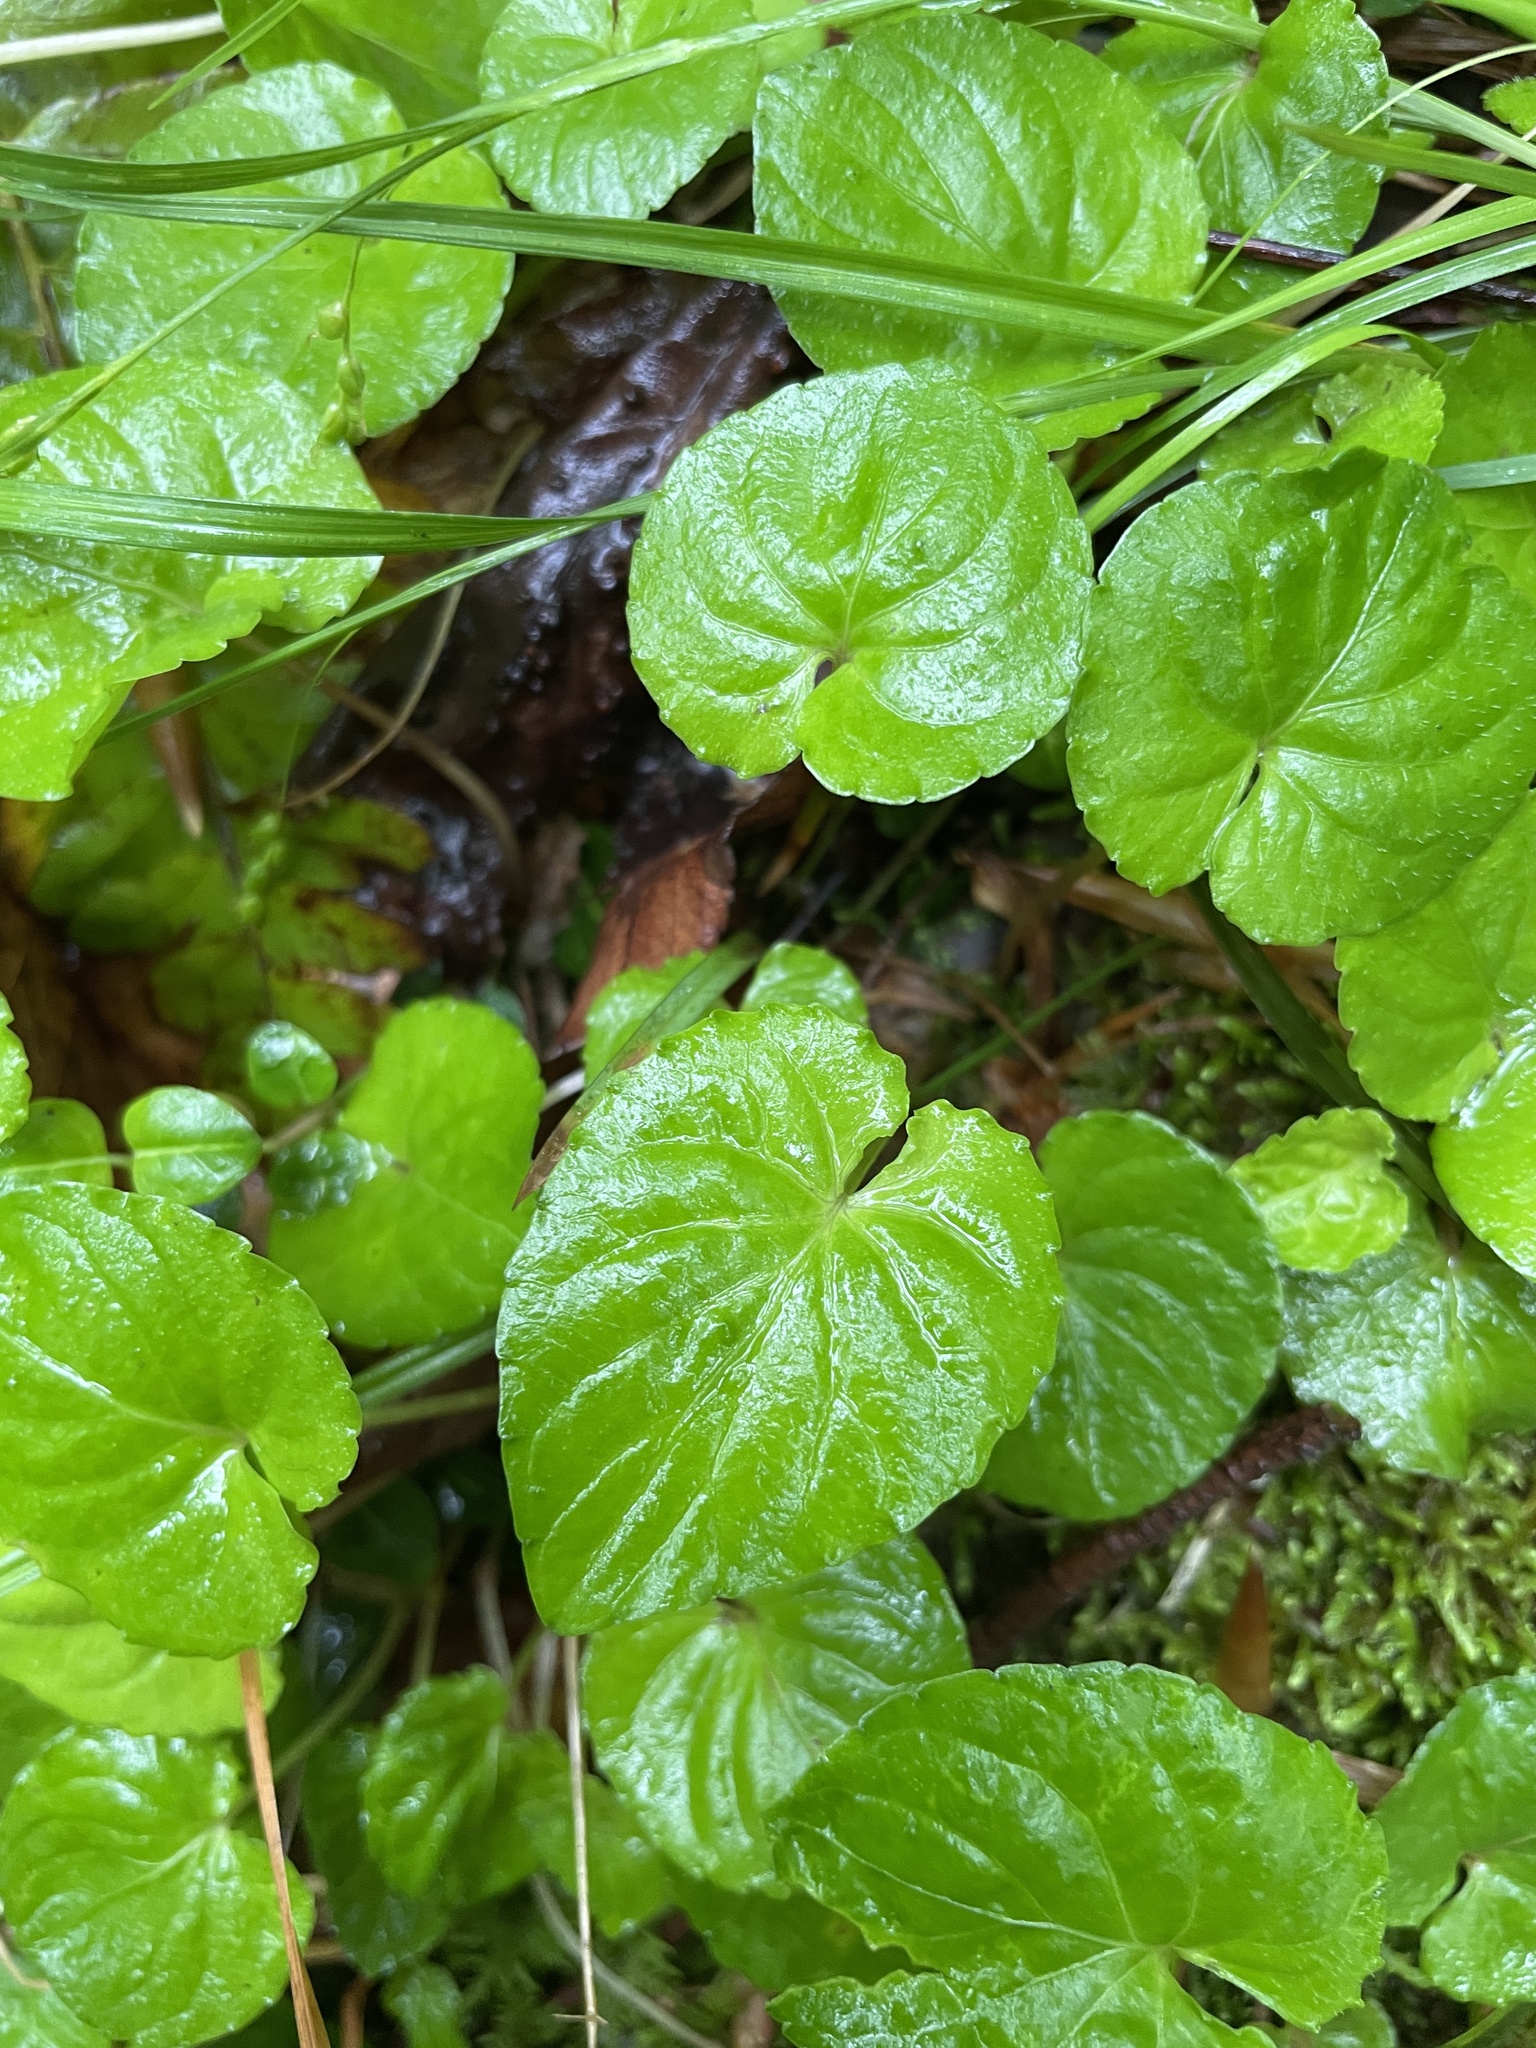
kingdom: Plantae
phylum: Tracheophyta
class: Magnoliopsida
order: Malpighiales
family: Violaceae
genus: Viola
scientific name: Viola blanda
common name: Sweet white violet
